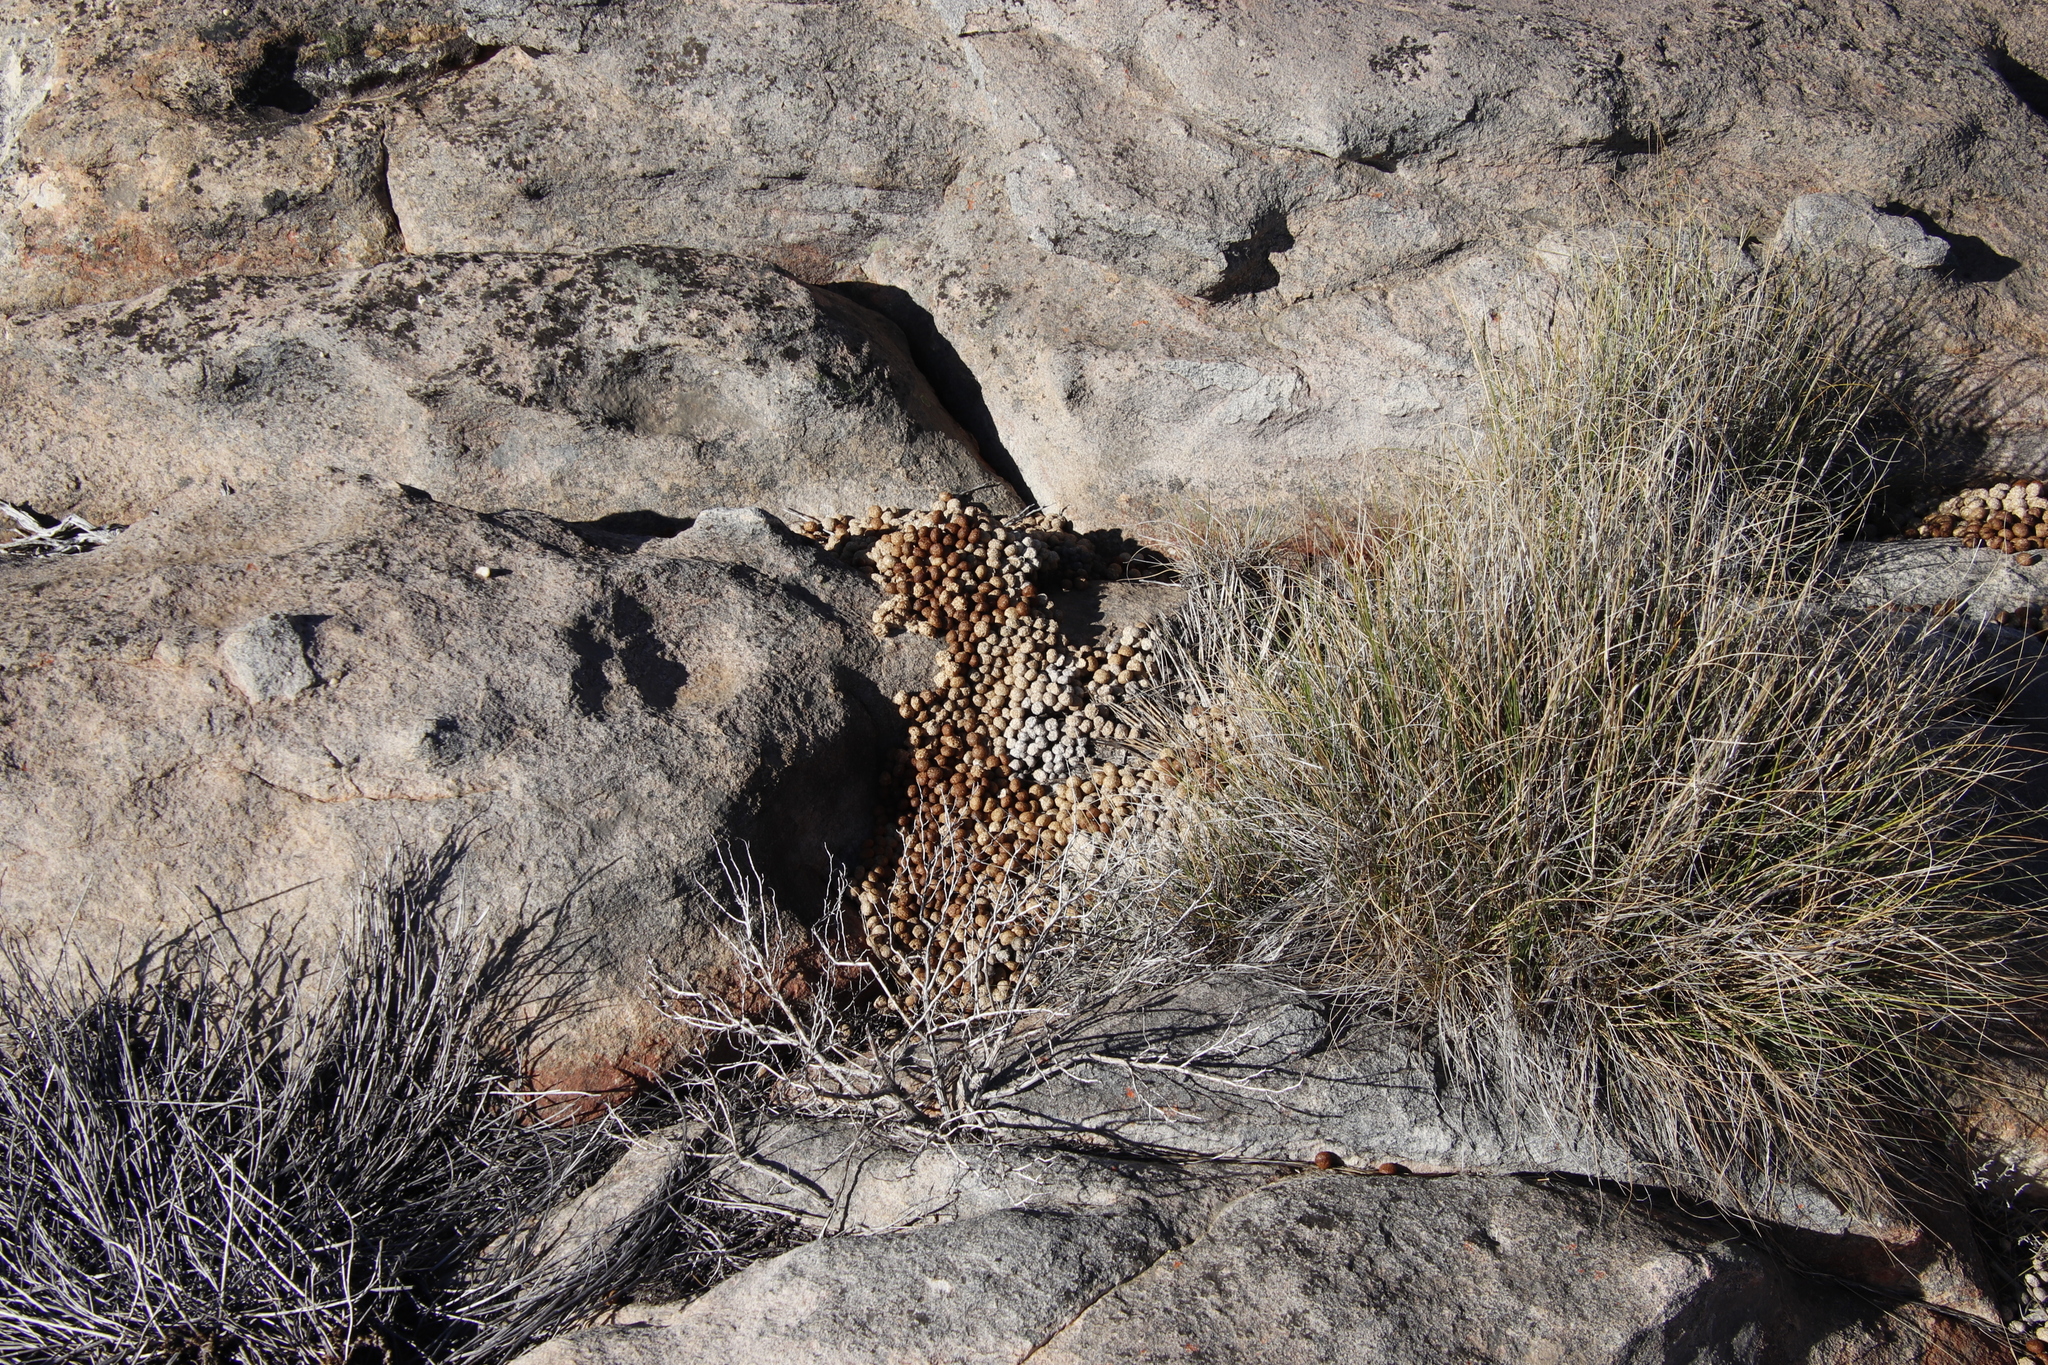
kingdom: Animalia
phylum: Chordata
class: Mammalia
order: Lagomorpha
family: Leporidae
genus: Pronolagus
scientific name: Pronolagus saundersiae
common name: Hewitt's red rock hare
